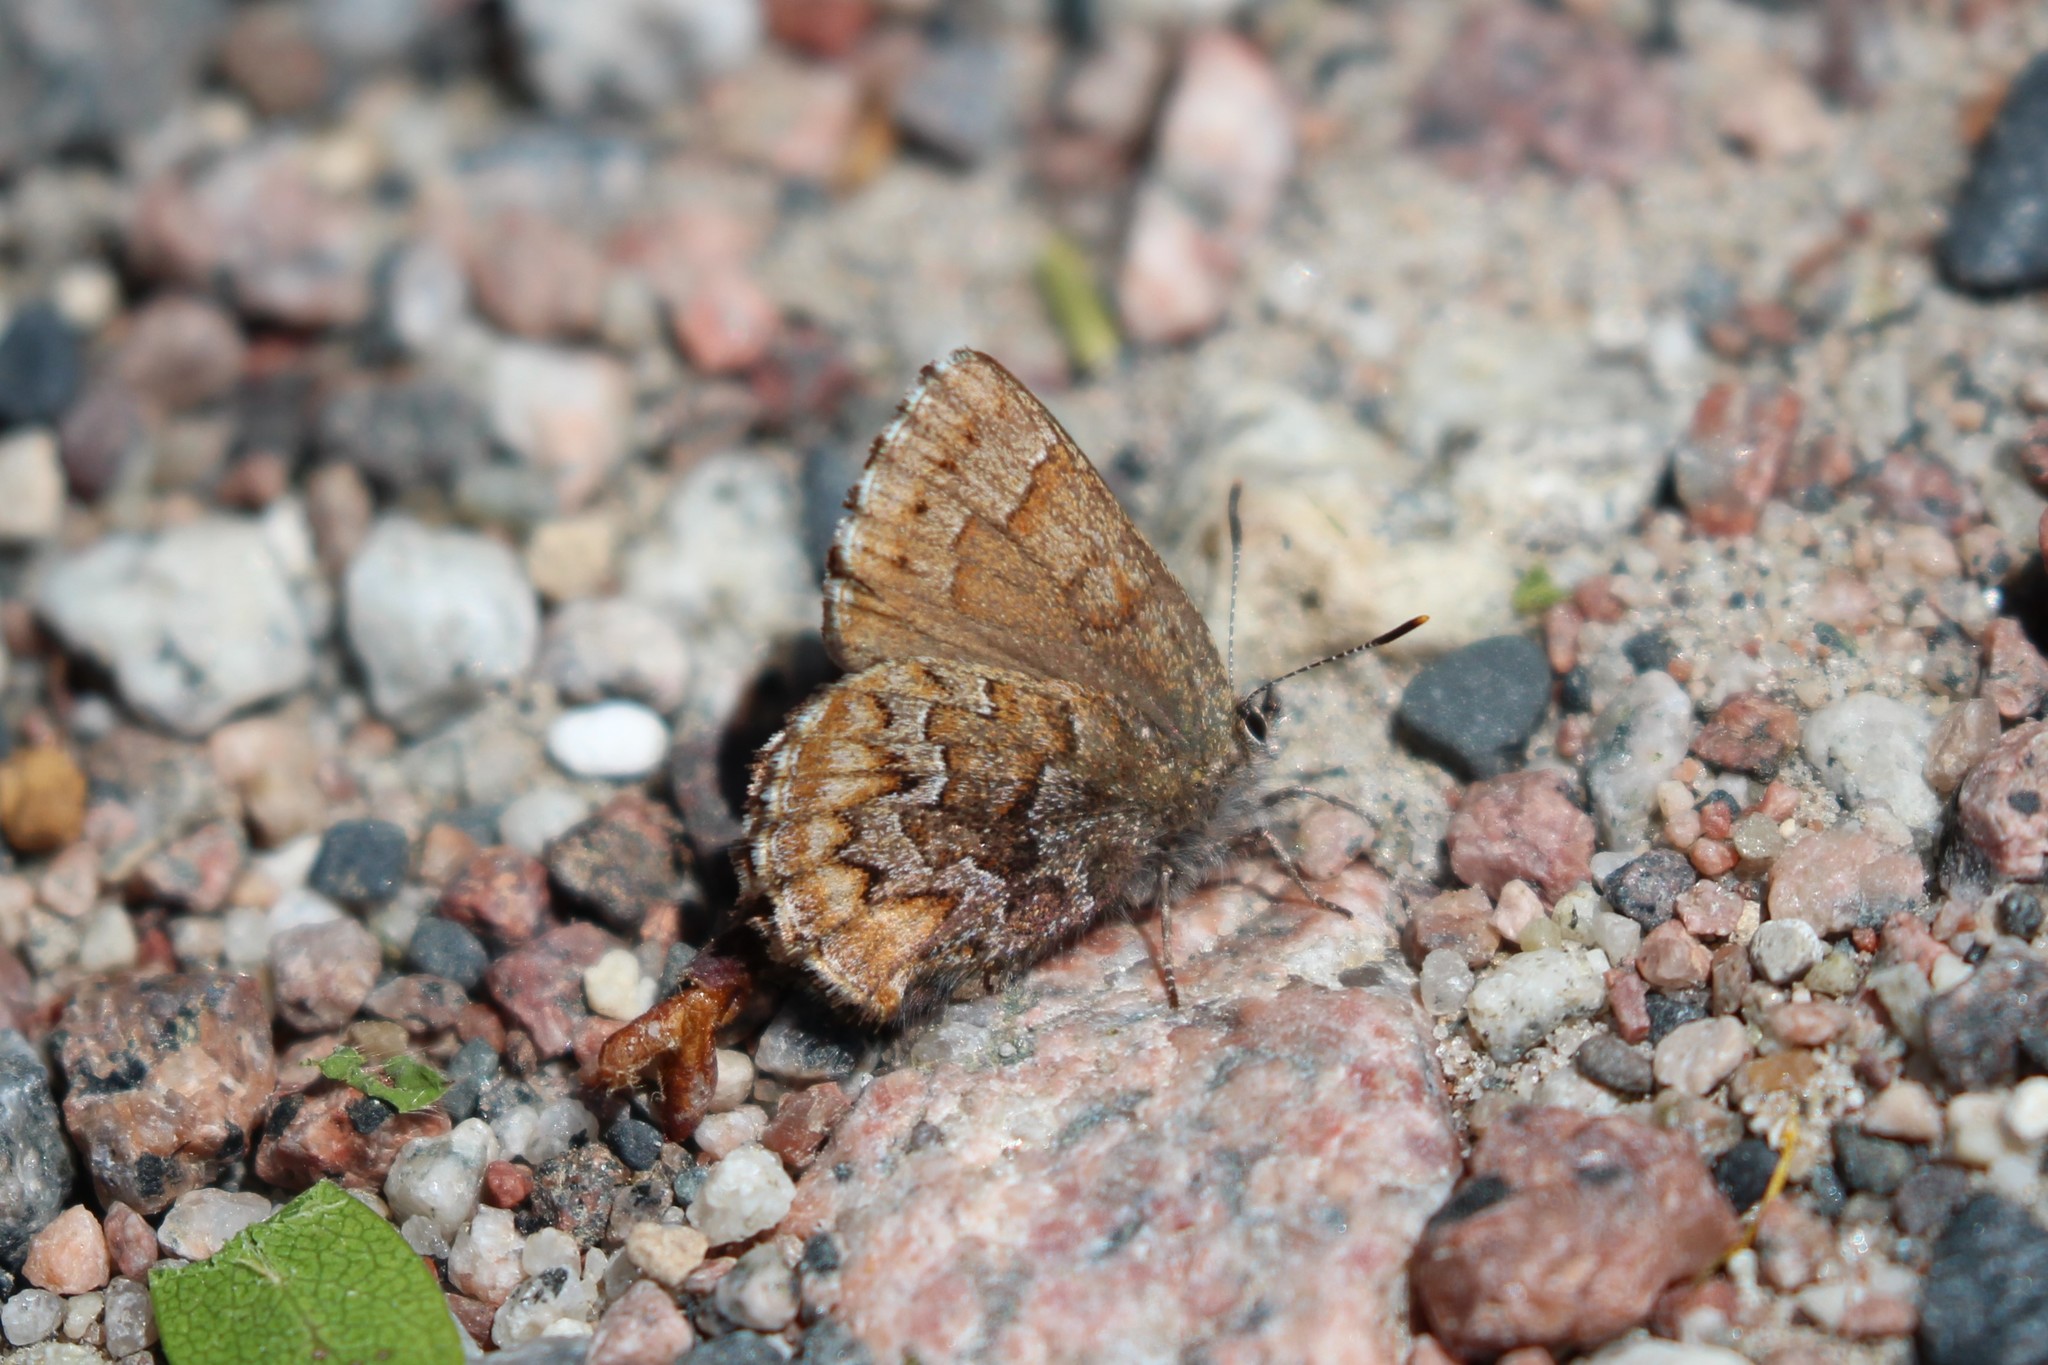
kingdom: Animalia
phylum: Arthropoda
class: Insecta
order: Lepidoptera
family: Lycaenidae
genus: Incisalia
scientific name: Incisalia niphon
